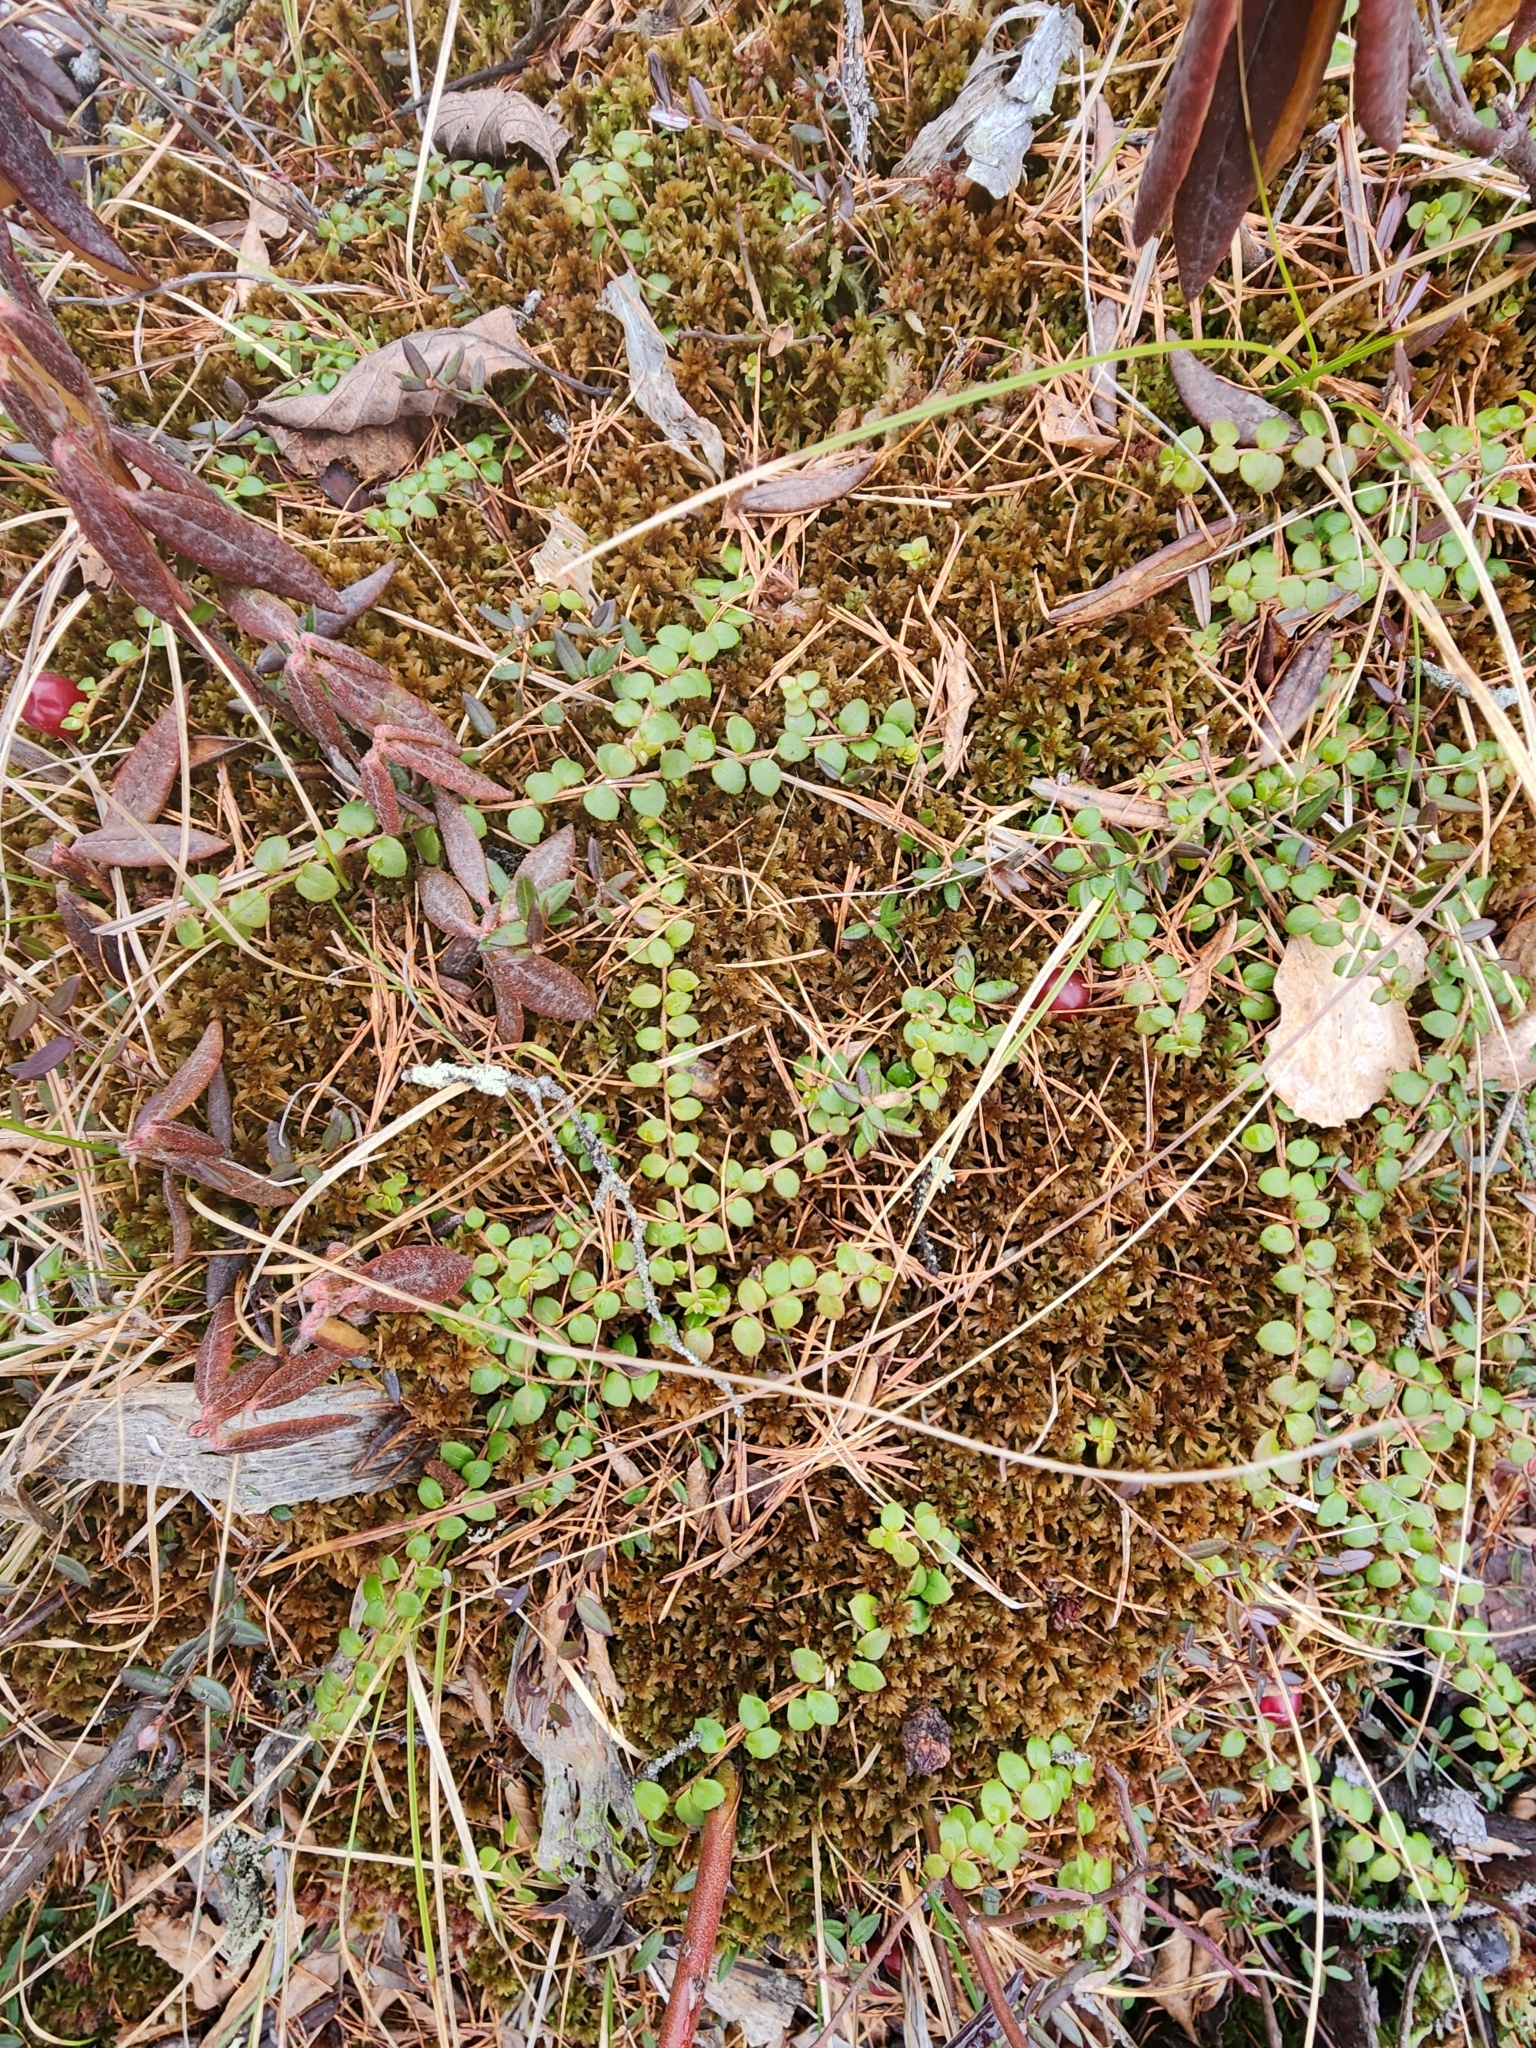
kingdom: Plantae
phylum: Tracheophyta
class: Magnoliopsida
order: Ericales
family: Ericaceae
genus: Gaultheria
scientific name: Gaultheria hispidula
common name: Cancer wintergreen
